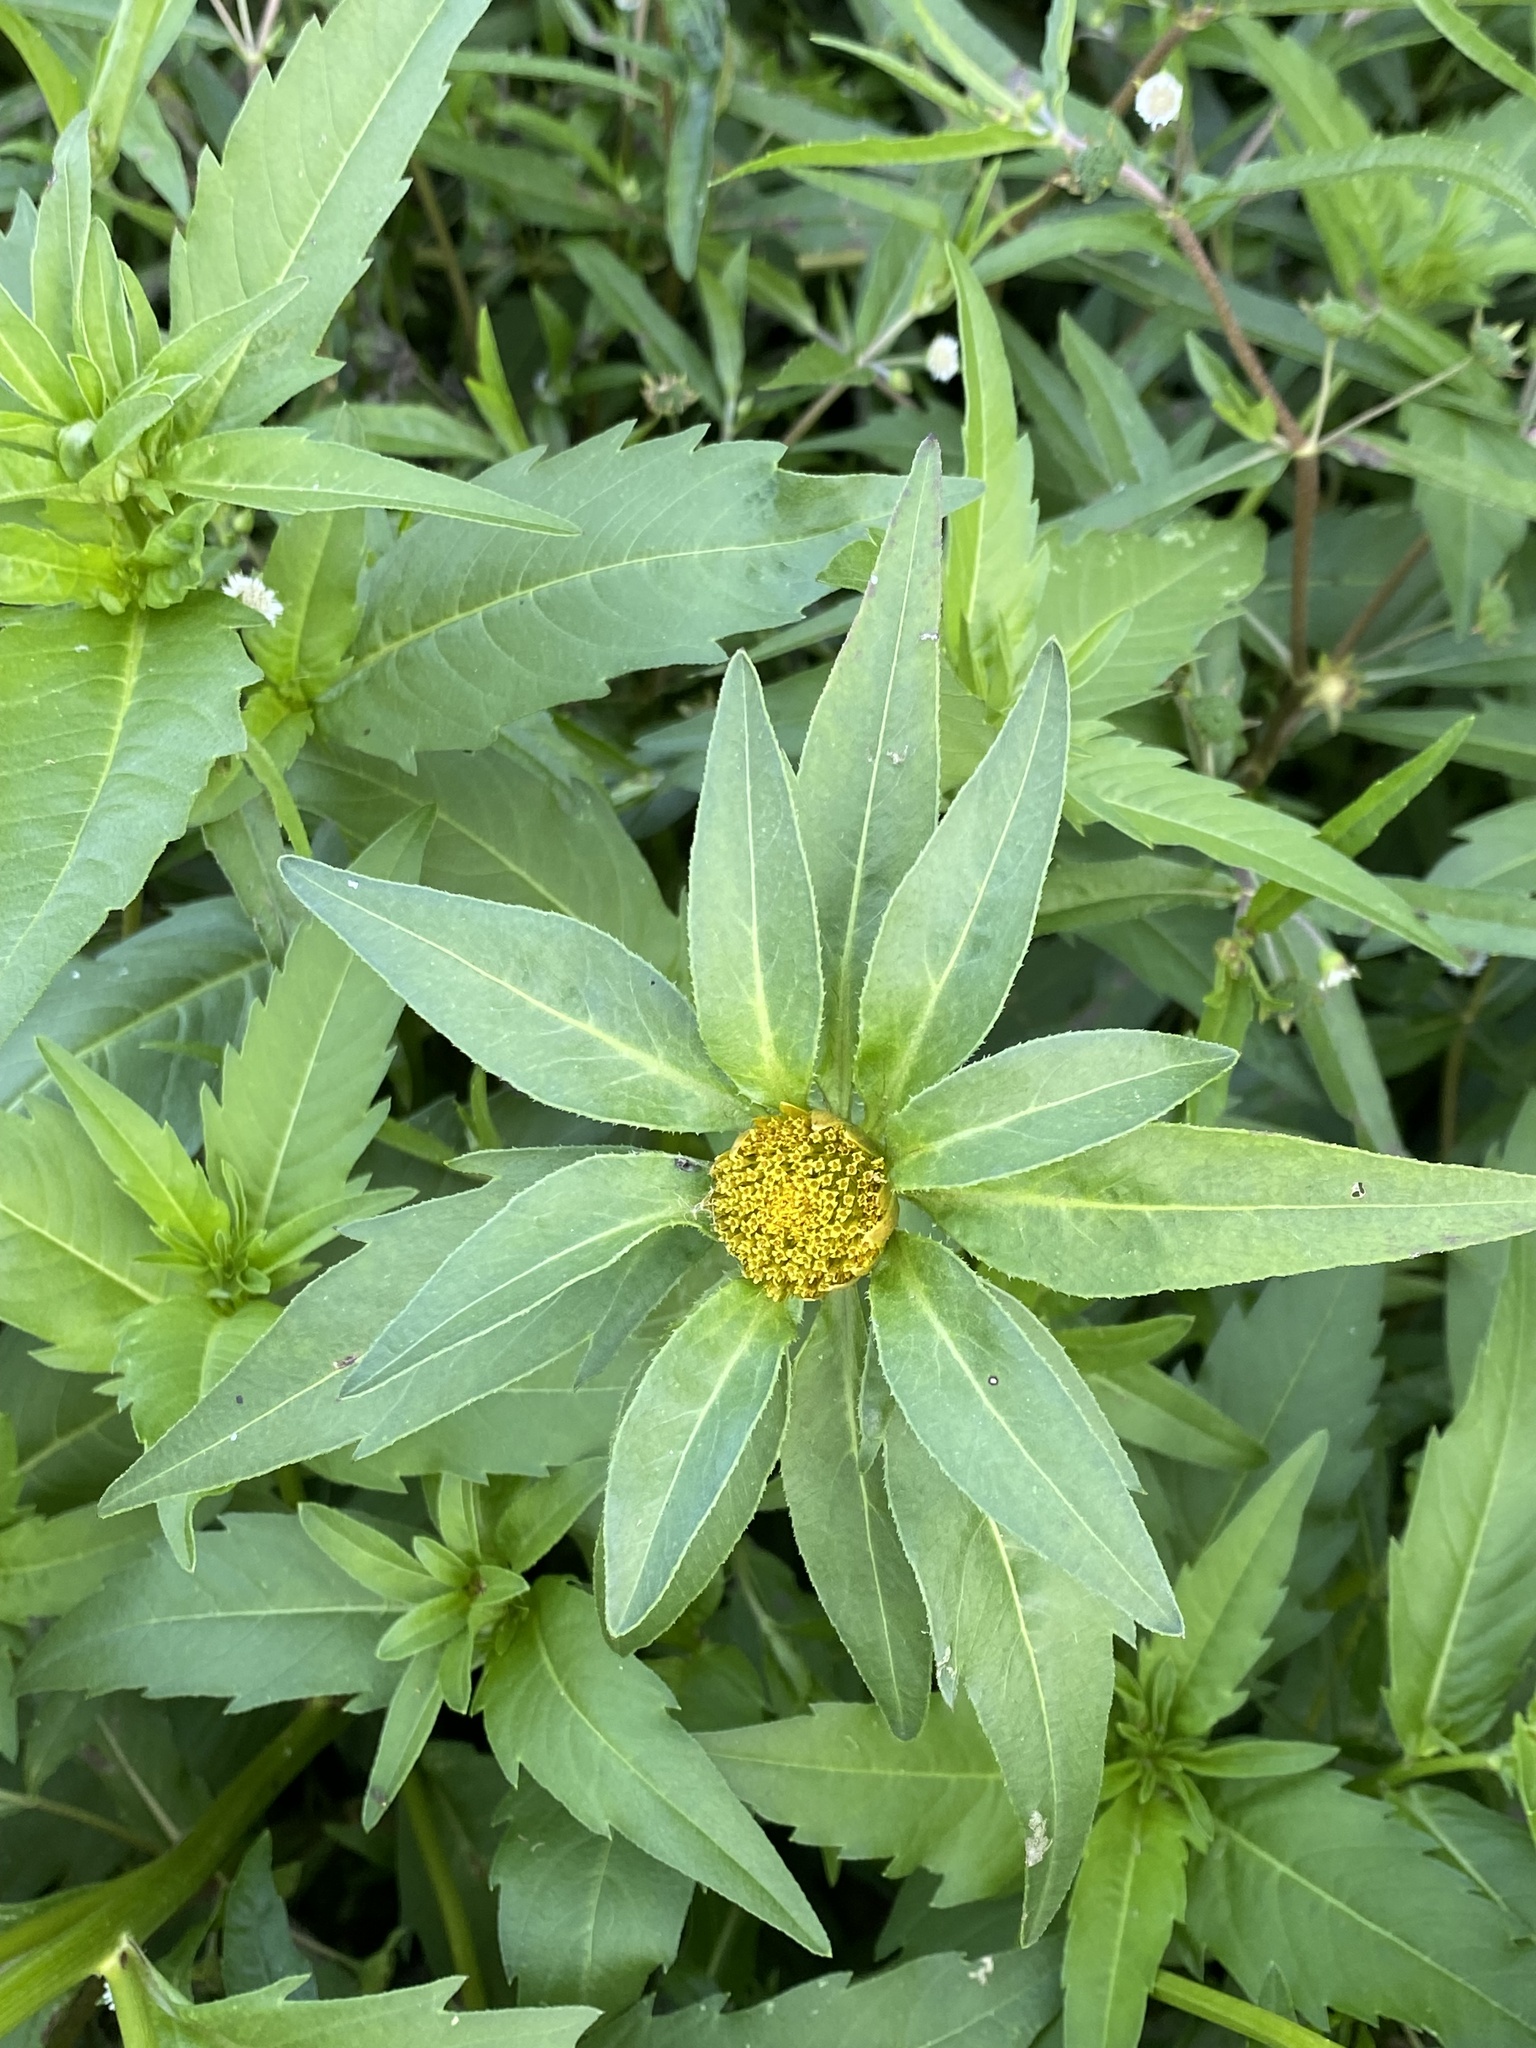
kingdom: Plantae
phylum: Tracheophyta
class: Magnoliopsida
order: Asterales
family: Asteraceae
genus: Bidens
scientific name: Bidens cernua
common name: Nodding bur-marigold
